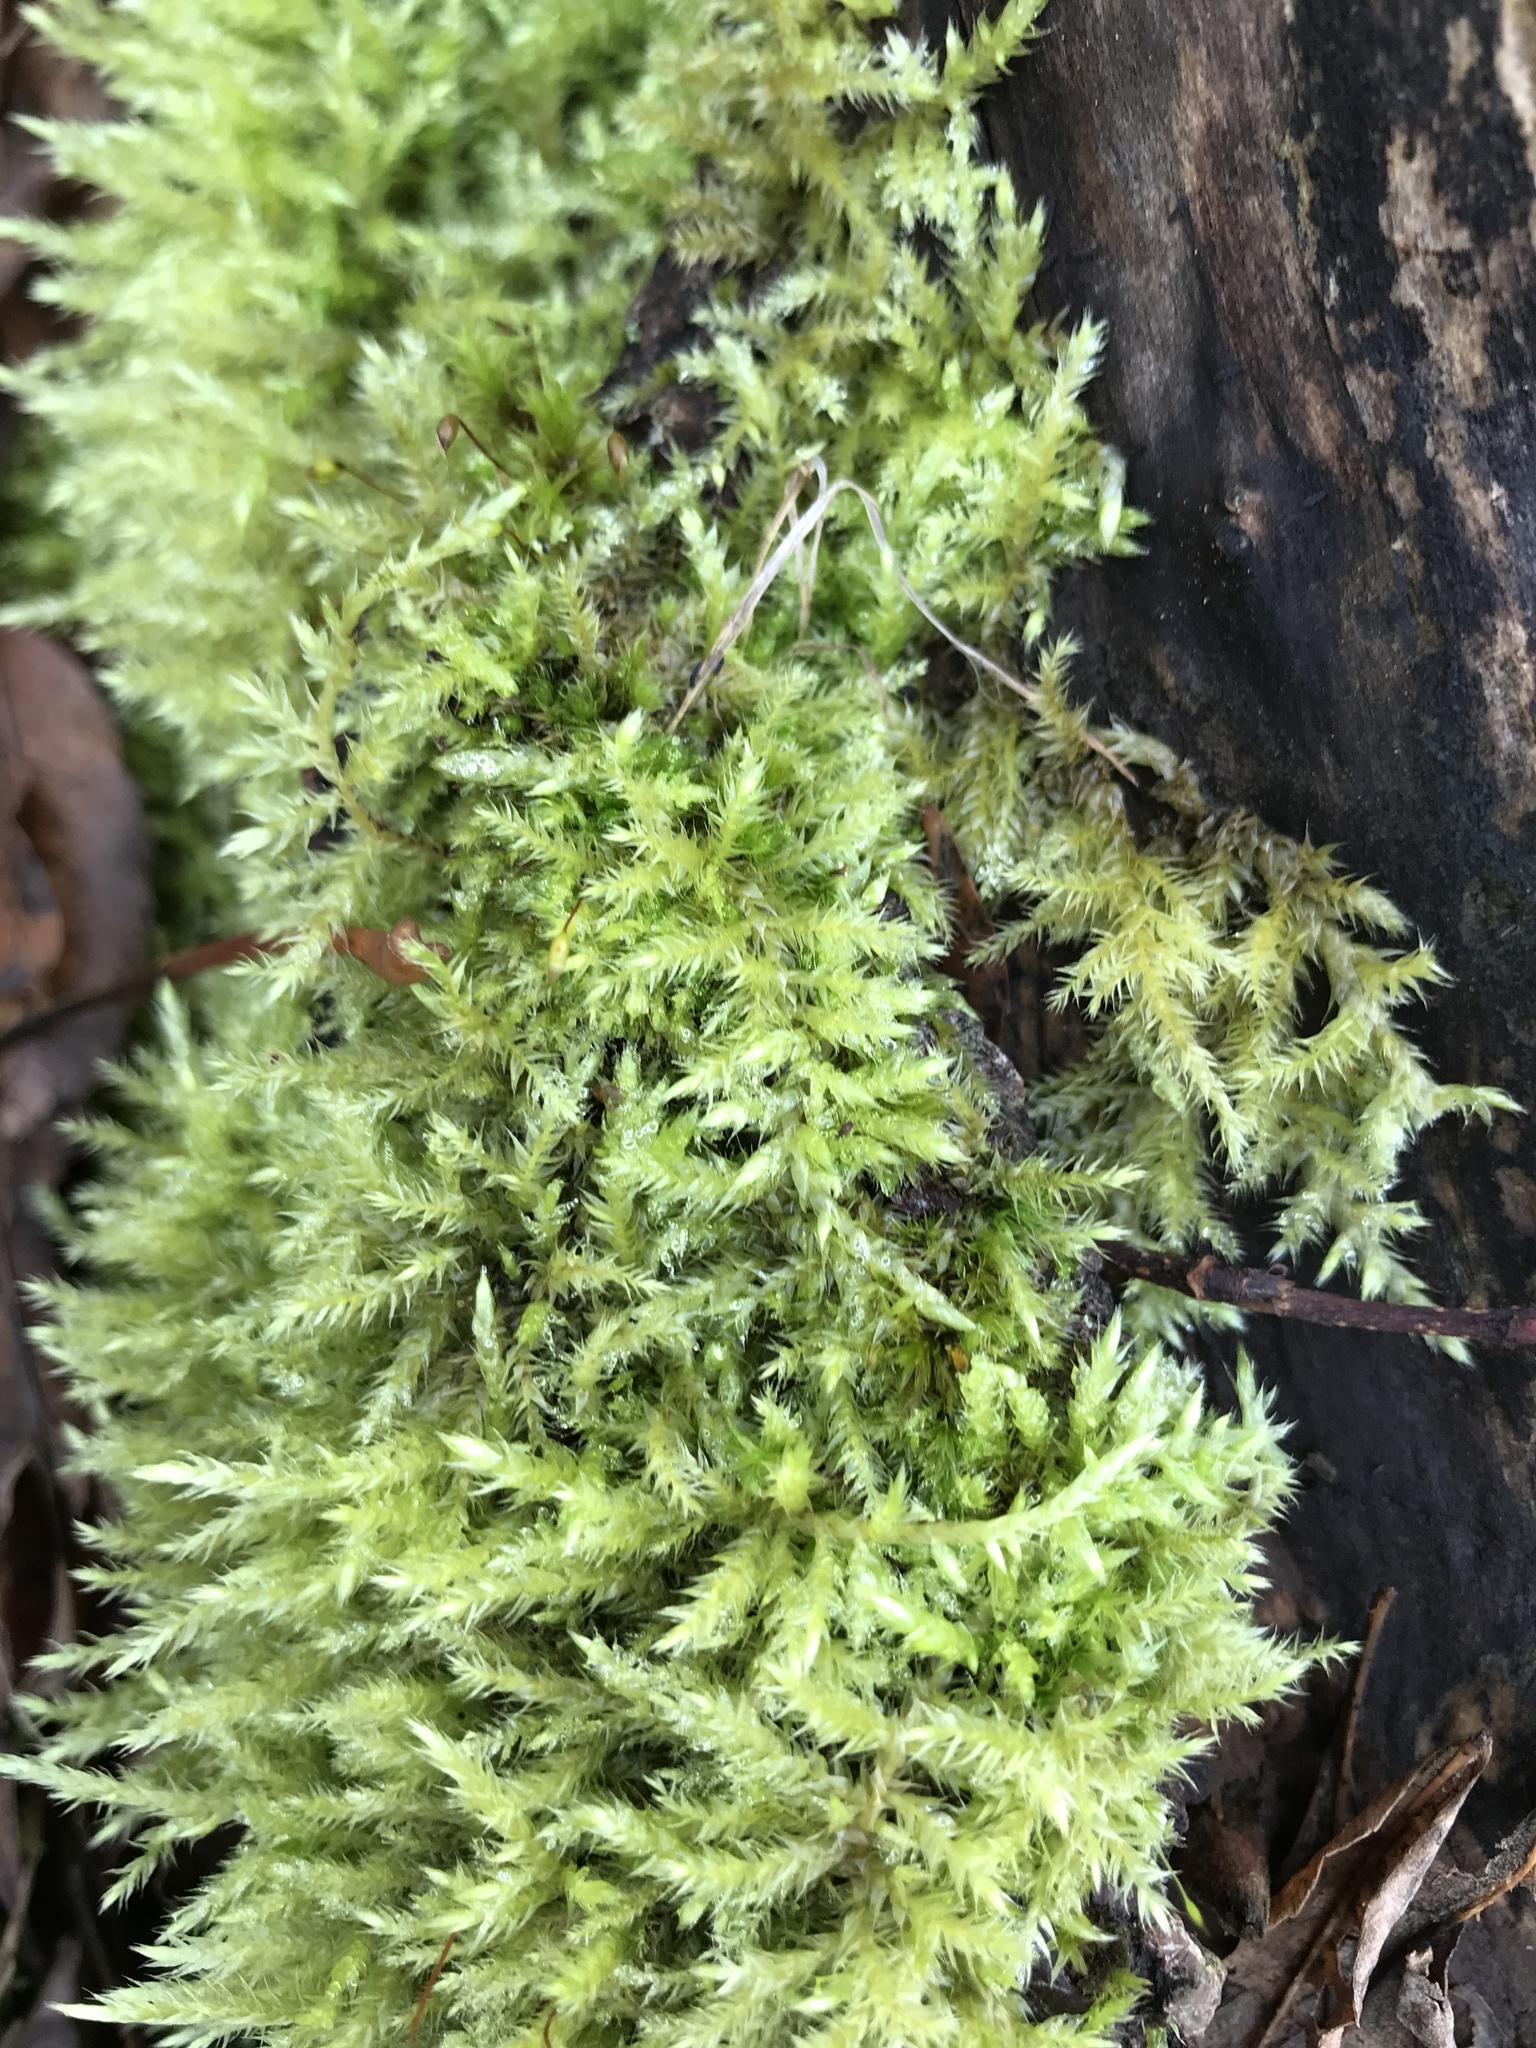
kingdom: Plantae
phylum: Bryophyta
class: Bryopsida
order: Hypnales
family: Brachytheciaceae
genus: Brachythecium
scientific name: Brachythecium rutabulum
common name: Rough-stalked feather-moss
